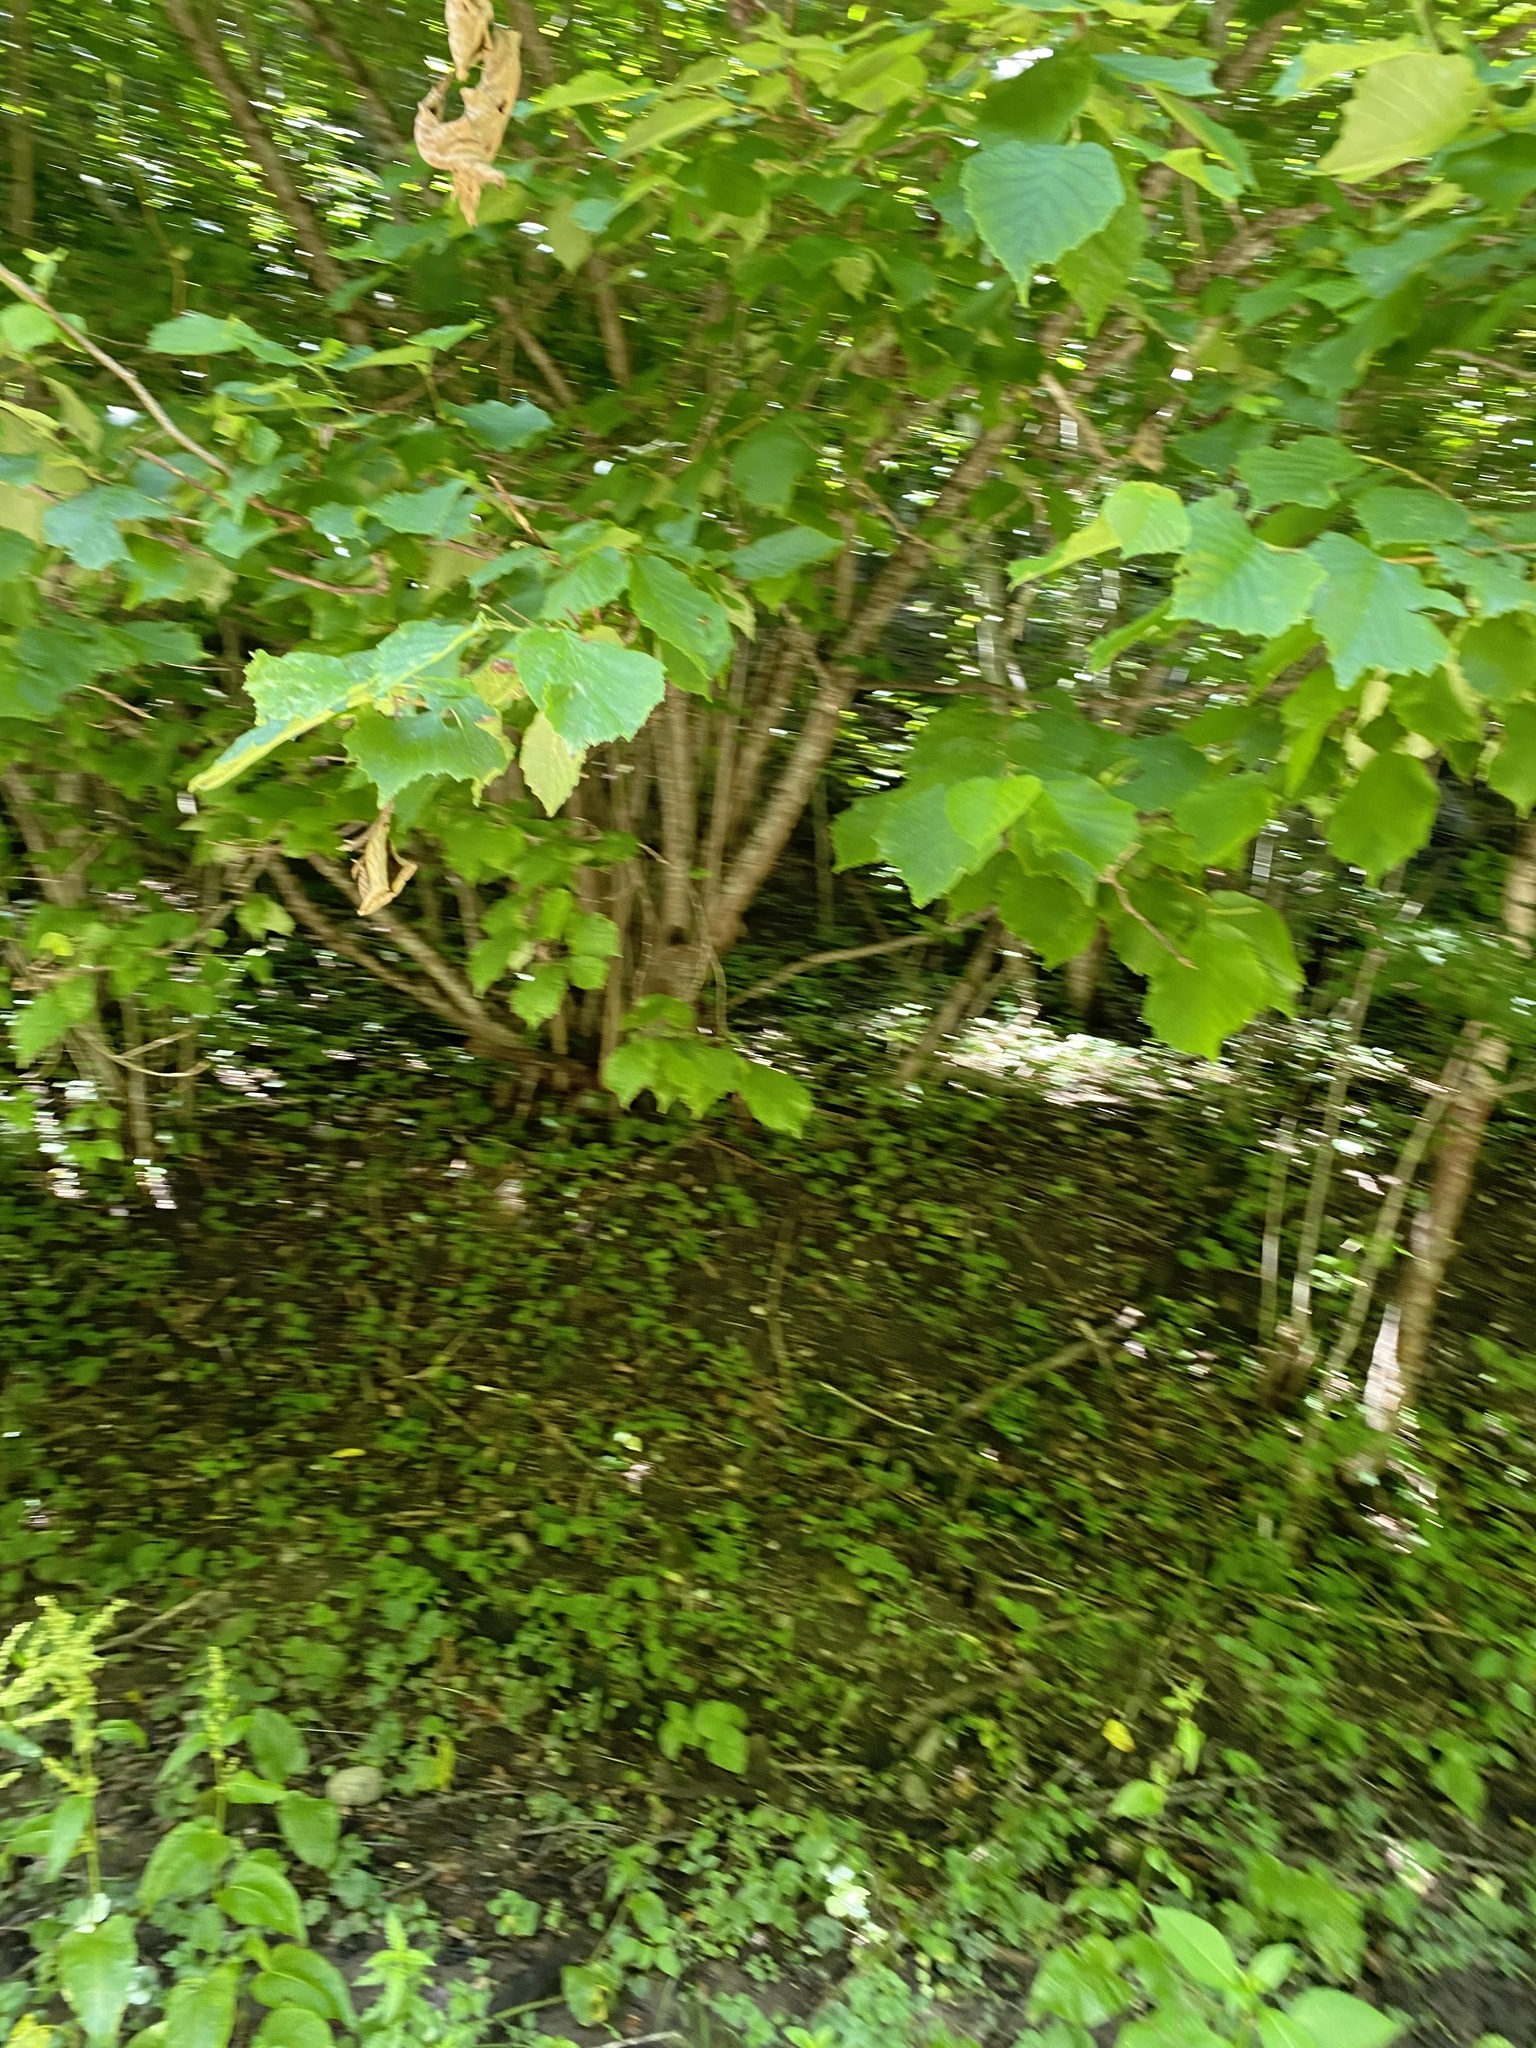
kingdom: Plantae
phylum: Tracheophyta
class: Magnoliopsida
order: Fagales
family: Betulaceae
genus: Corylus
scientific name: Corylus avellana
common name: European hazel
